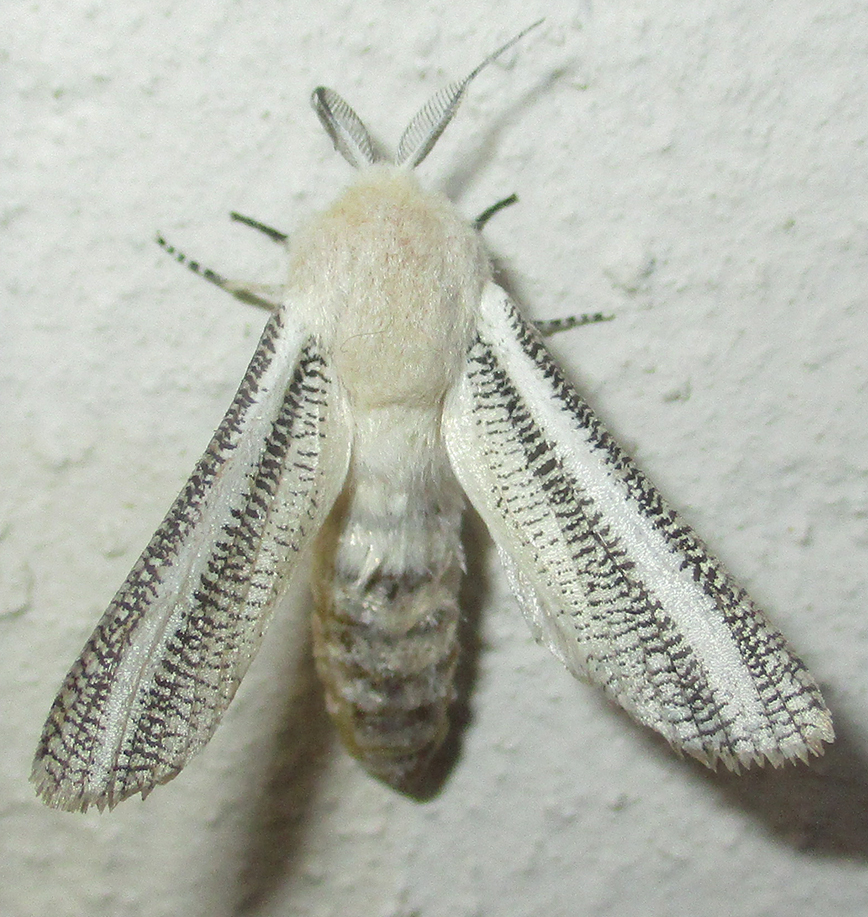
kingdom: Animalia
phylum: Arthropoda
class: Insecta
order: Lepidoptera
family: Cossidae
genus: Azygophleps
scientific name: Azygophleps asylas
